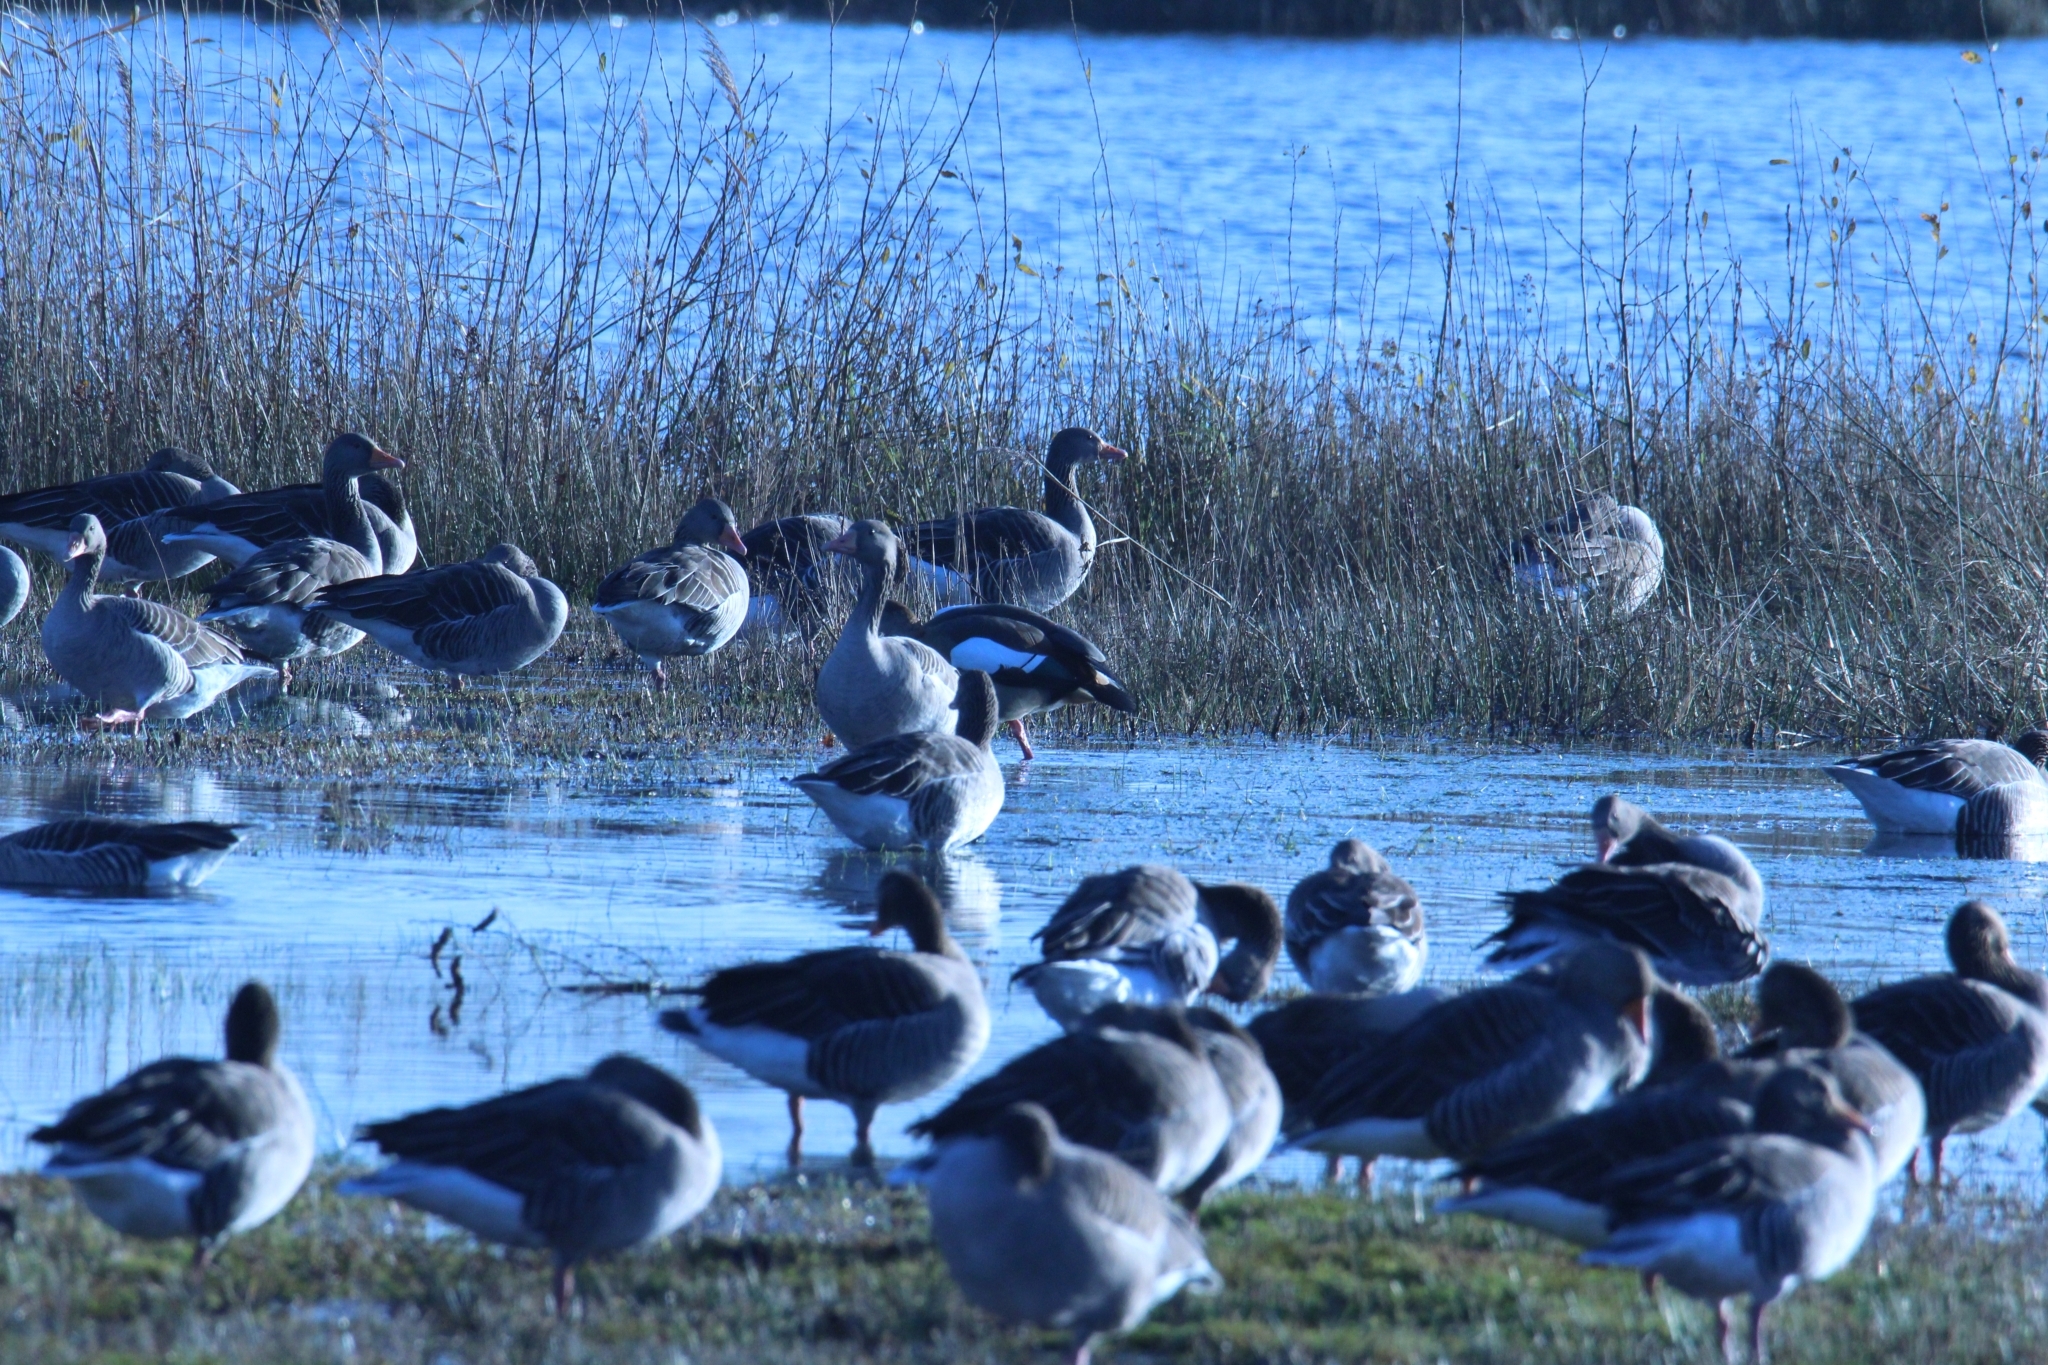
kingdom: Animalia
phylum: Chordata
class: Aves
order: Anseriformes
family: Anatidae
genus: Anser
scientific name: Anser anser
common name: Greylag goose
